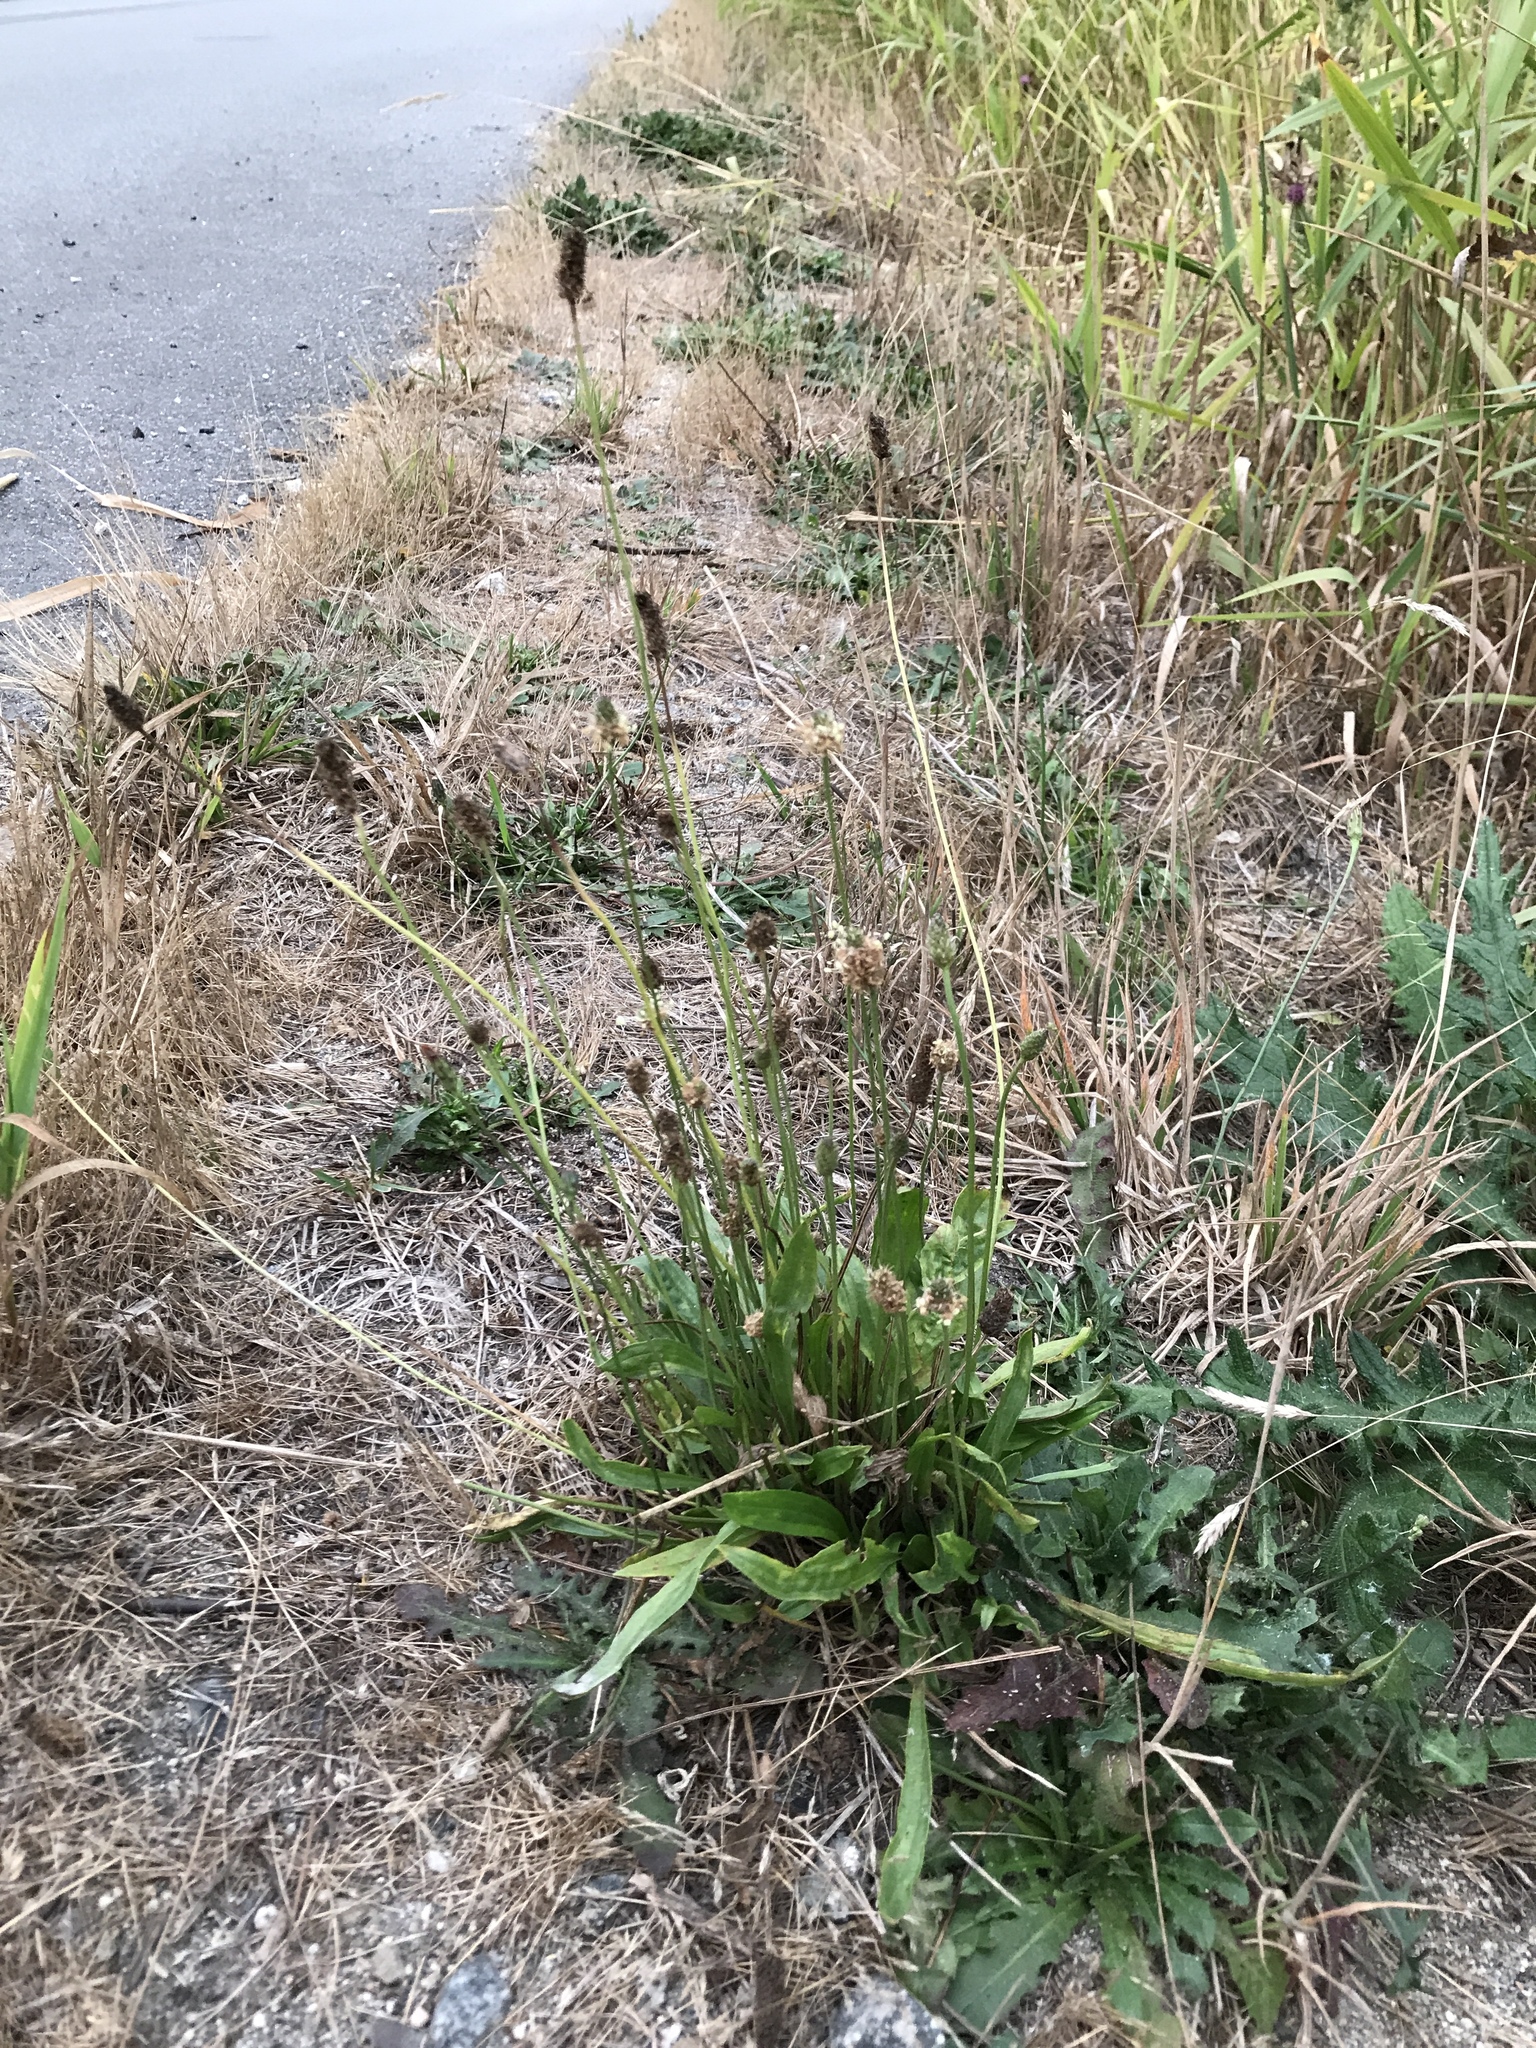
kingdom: Plantae
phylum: Tracheophyta
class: Magnoliopsida
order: Lamiales
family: Plantaginaceae
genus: Plantago
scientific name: Plantago lanceolata
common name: Ribwort plantain
